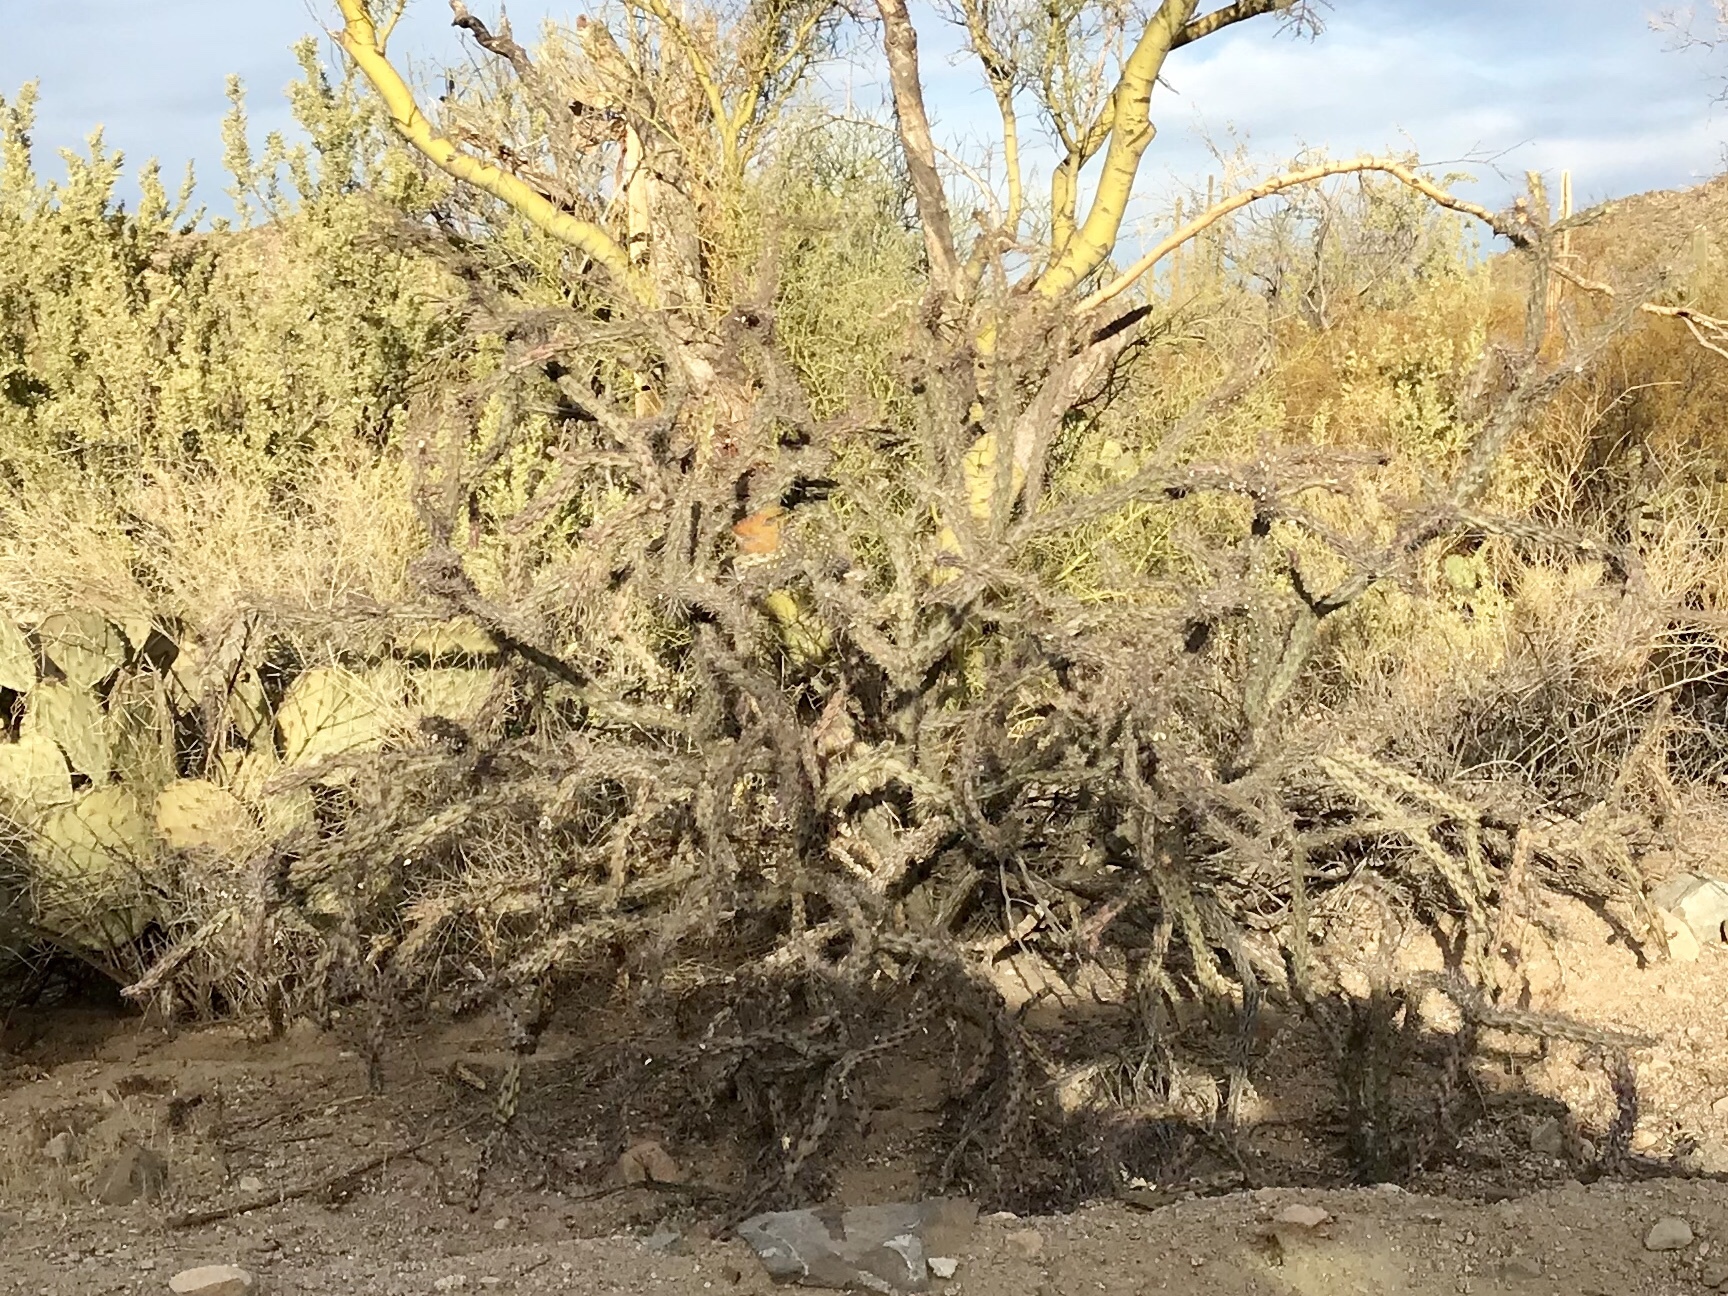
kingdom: Plantae
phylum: Tracheophyta
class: Magnoliopsida
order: Caryophyllales
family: Cactaceae
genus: Cylindropuntia
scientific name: Cylindropuntia acanthocarpa
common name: Buckhorn cholla
